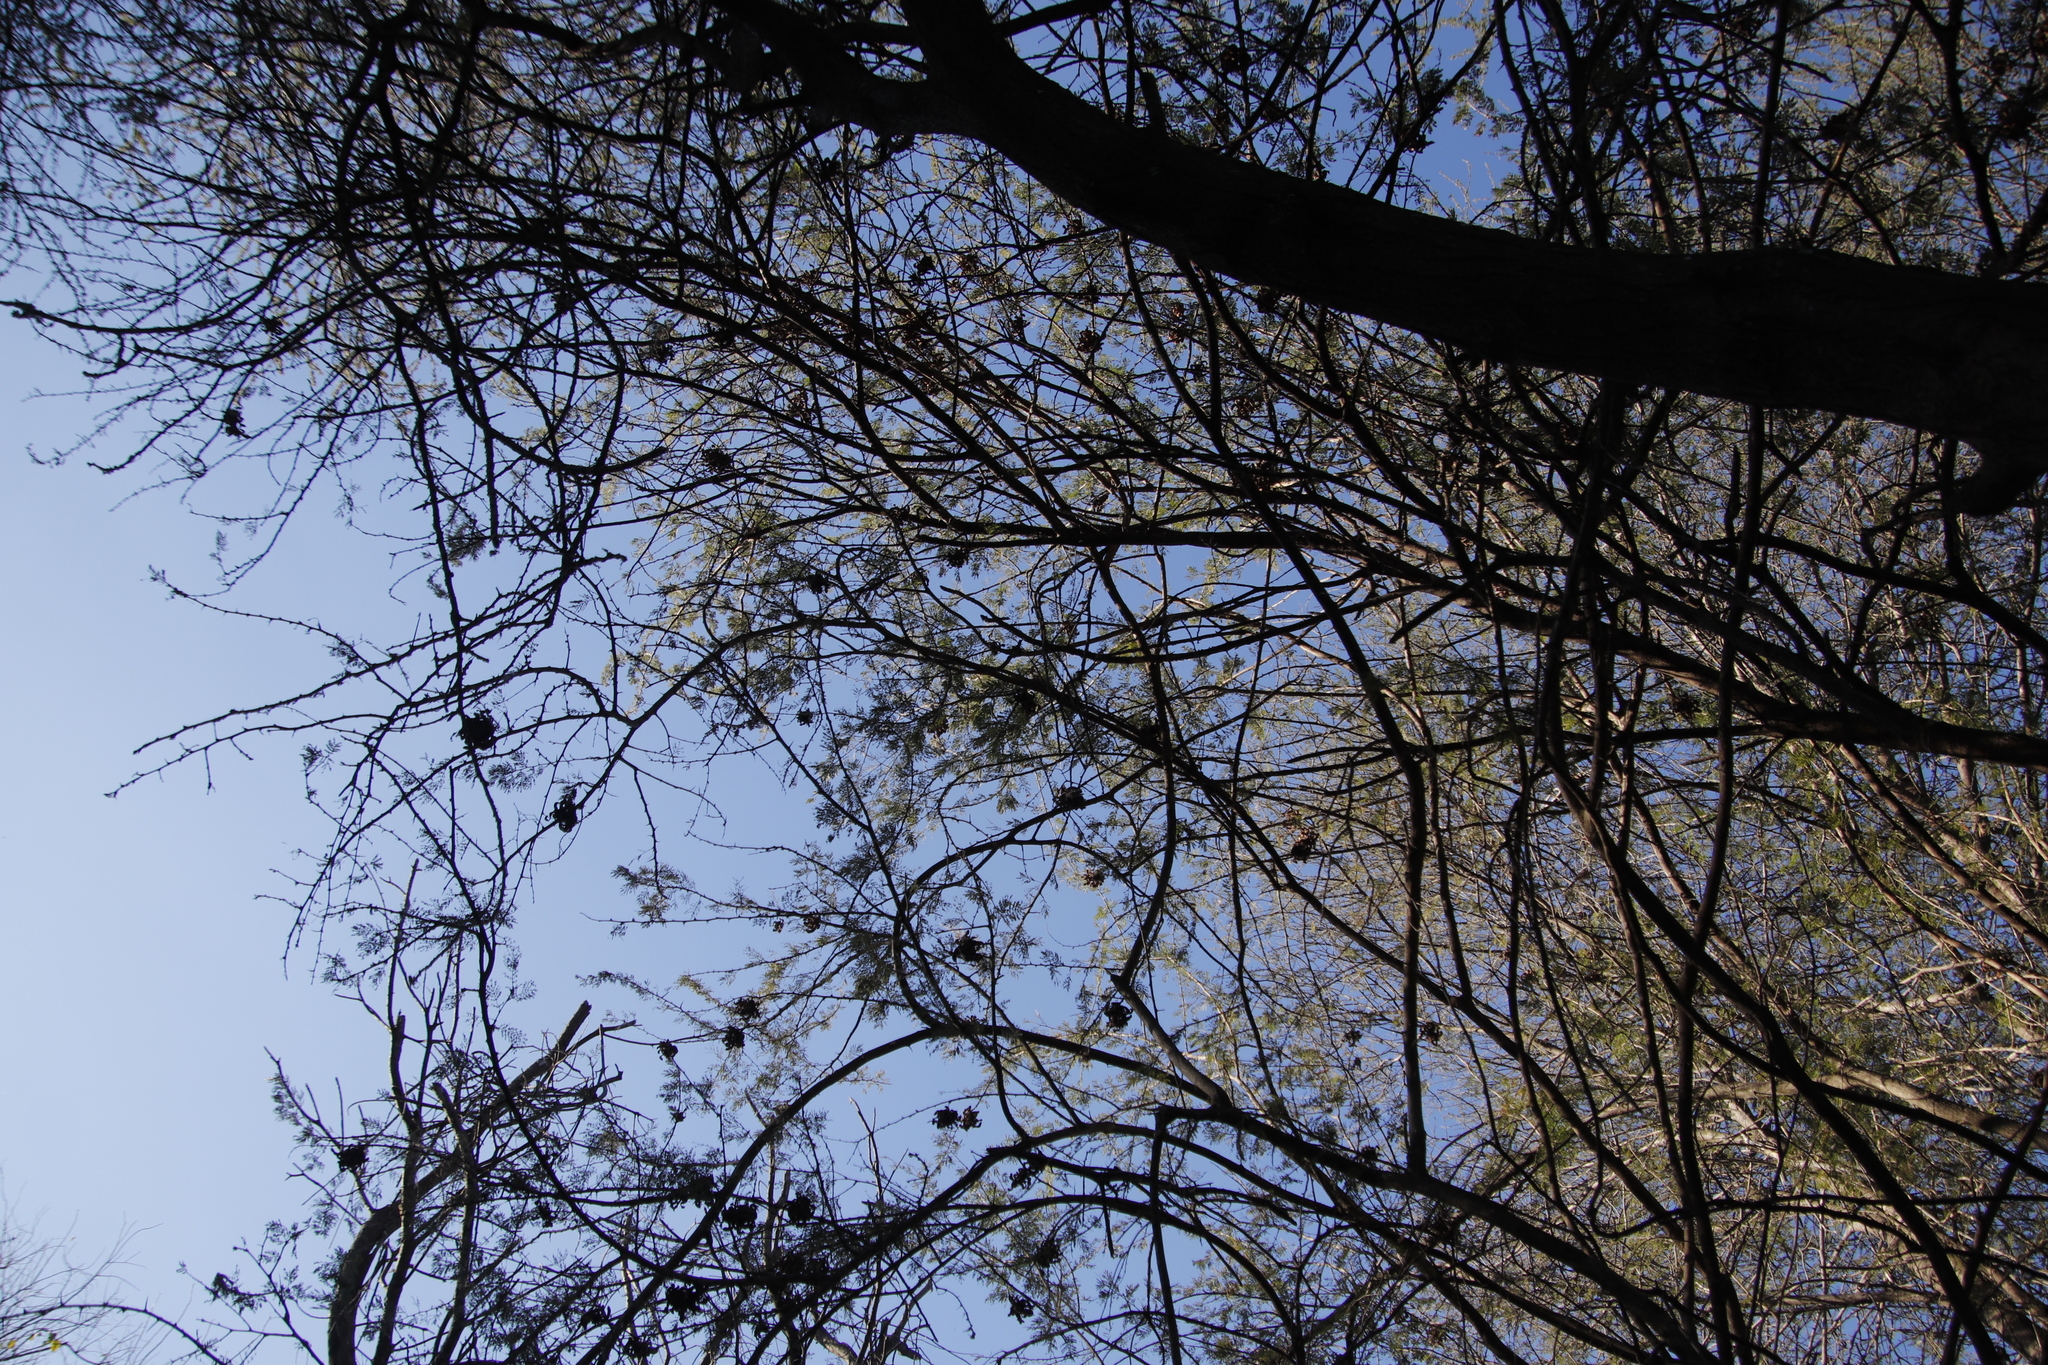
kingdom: Plantae
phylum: Tracheophyta
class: Magnoliopsida
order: Fabales
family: Fabaceae
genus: Dichrostachys
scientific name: Dichrostachys cinerea
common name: Sicklebush
